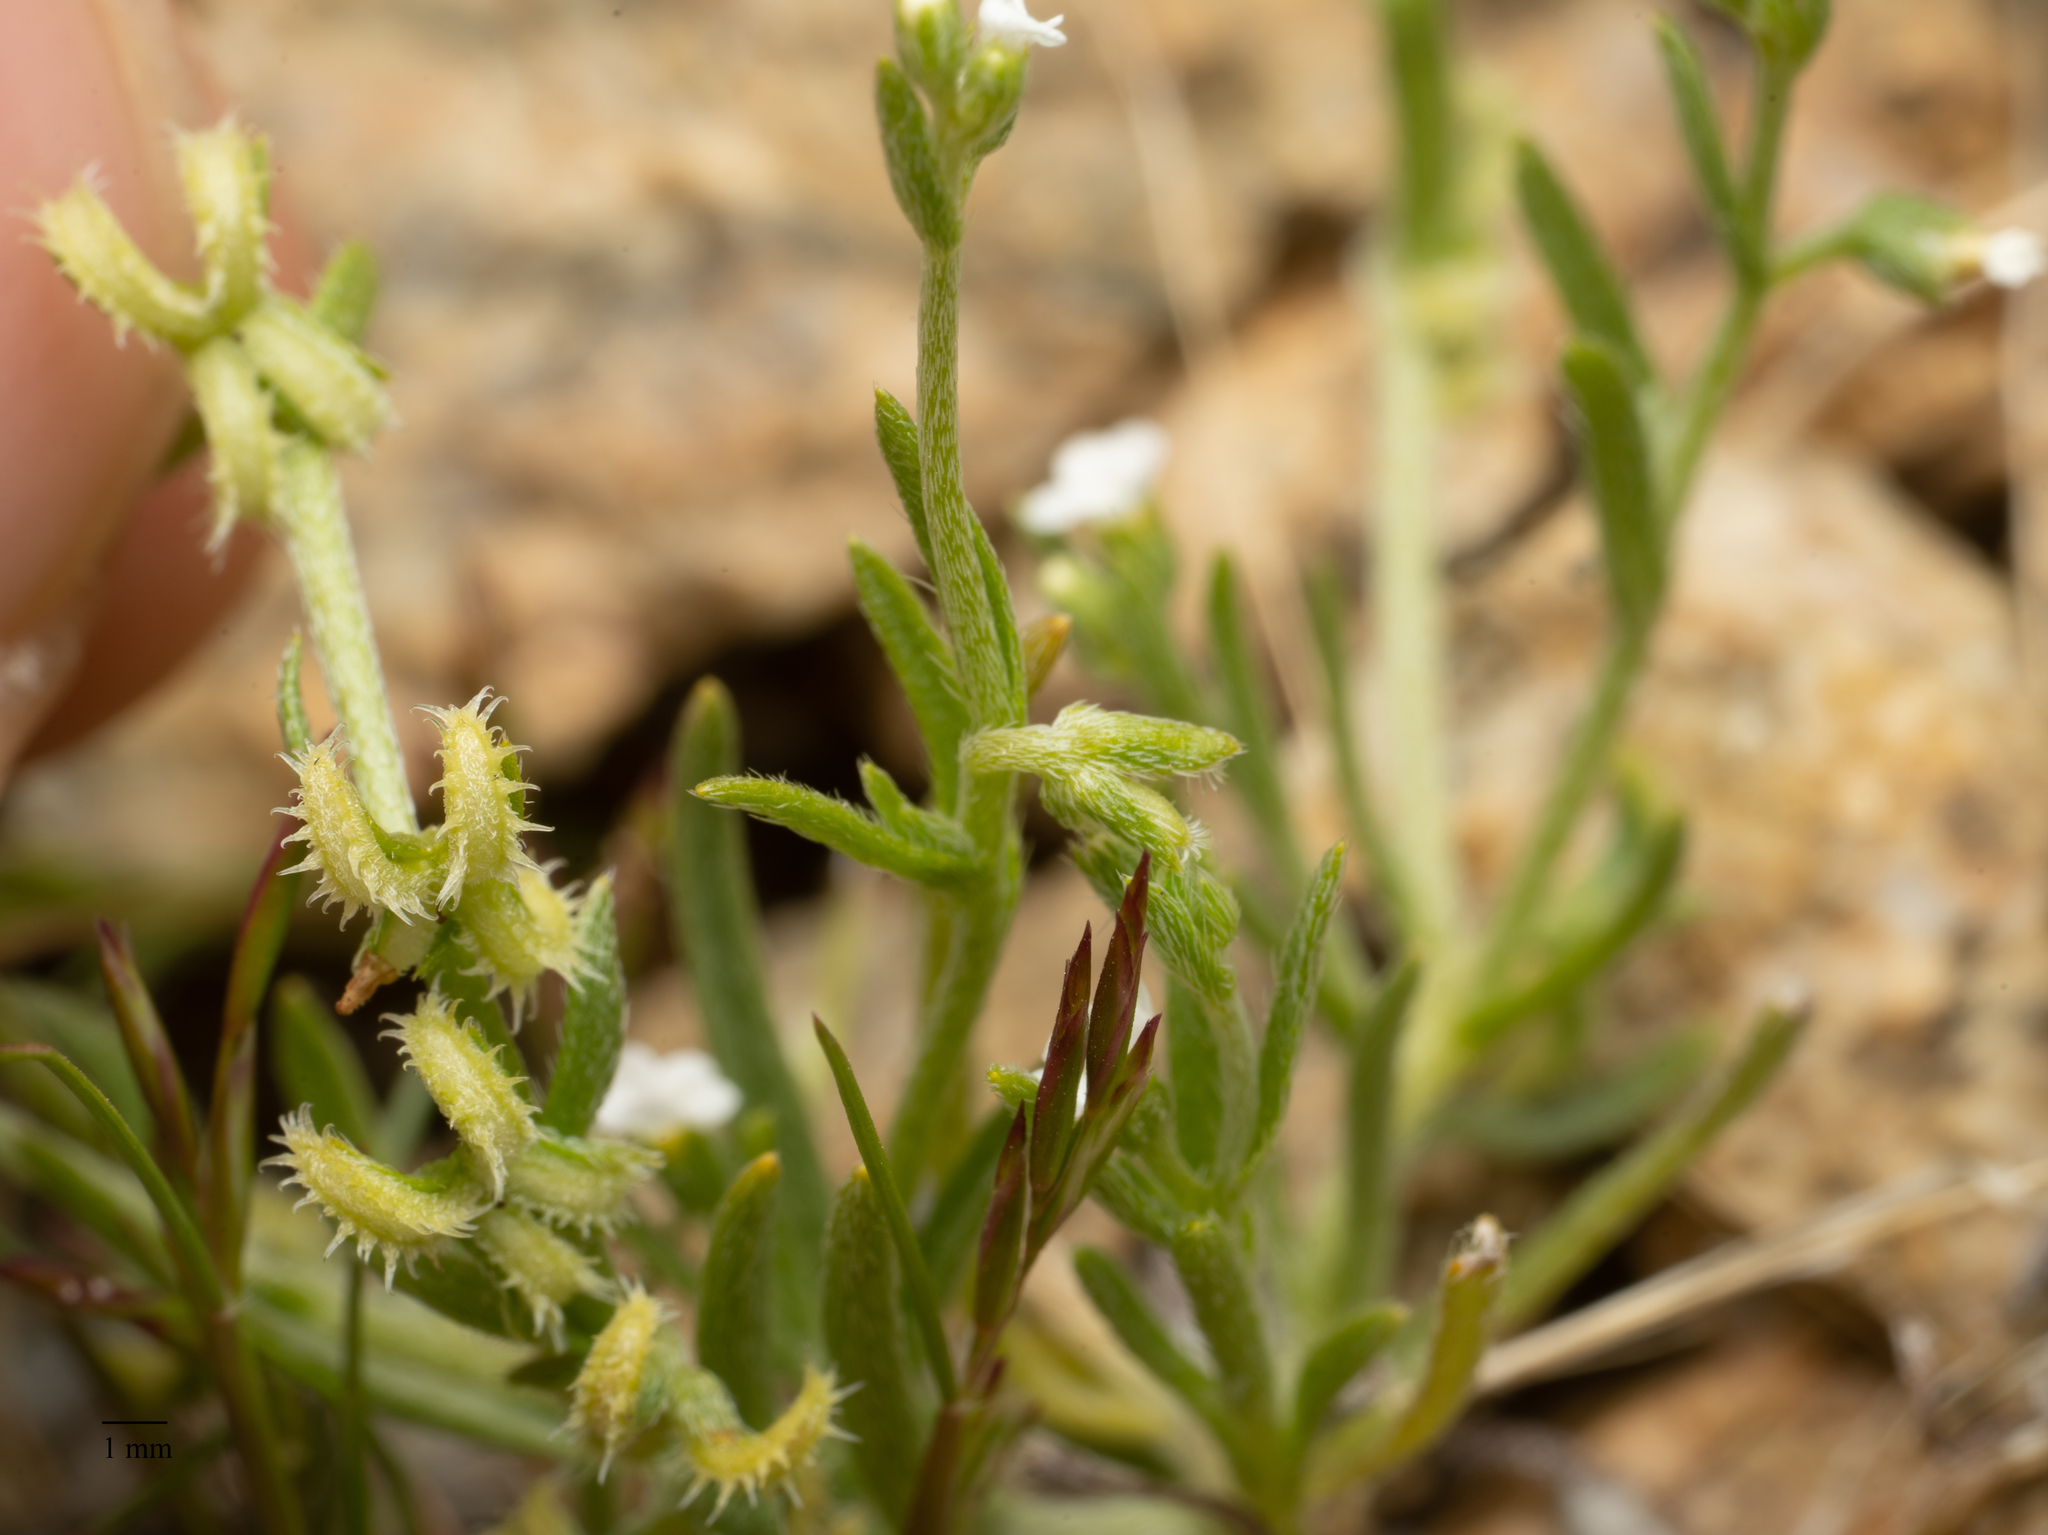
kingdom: Plantae
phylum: Tracheophyta
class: Magnoliopsida
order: Boraginales
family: Boraginaceae
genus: Pectocarya
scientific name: Pectocarya recurvata
